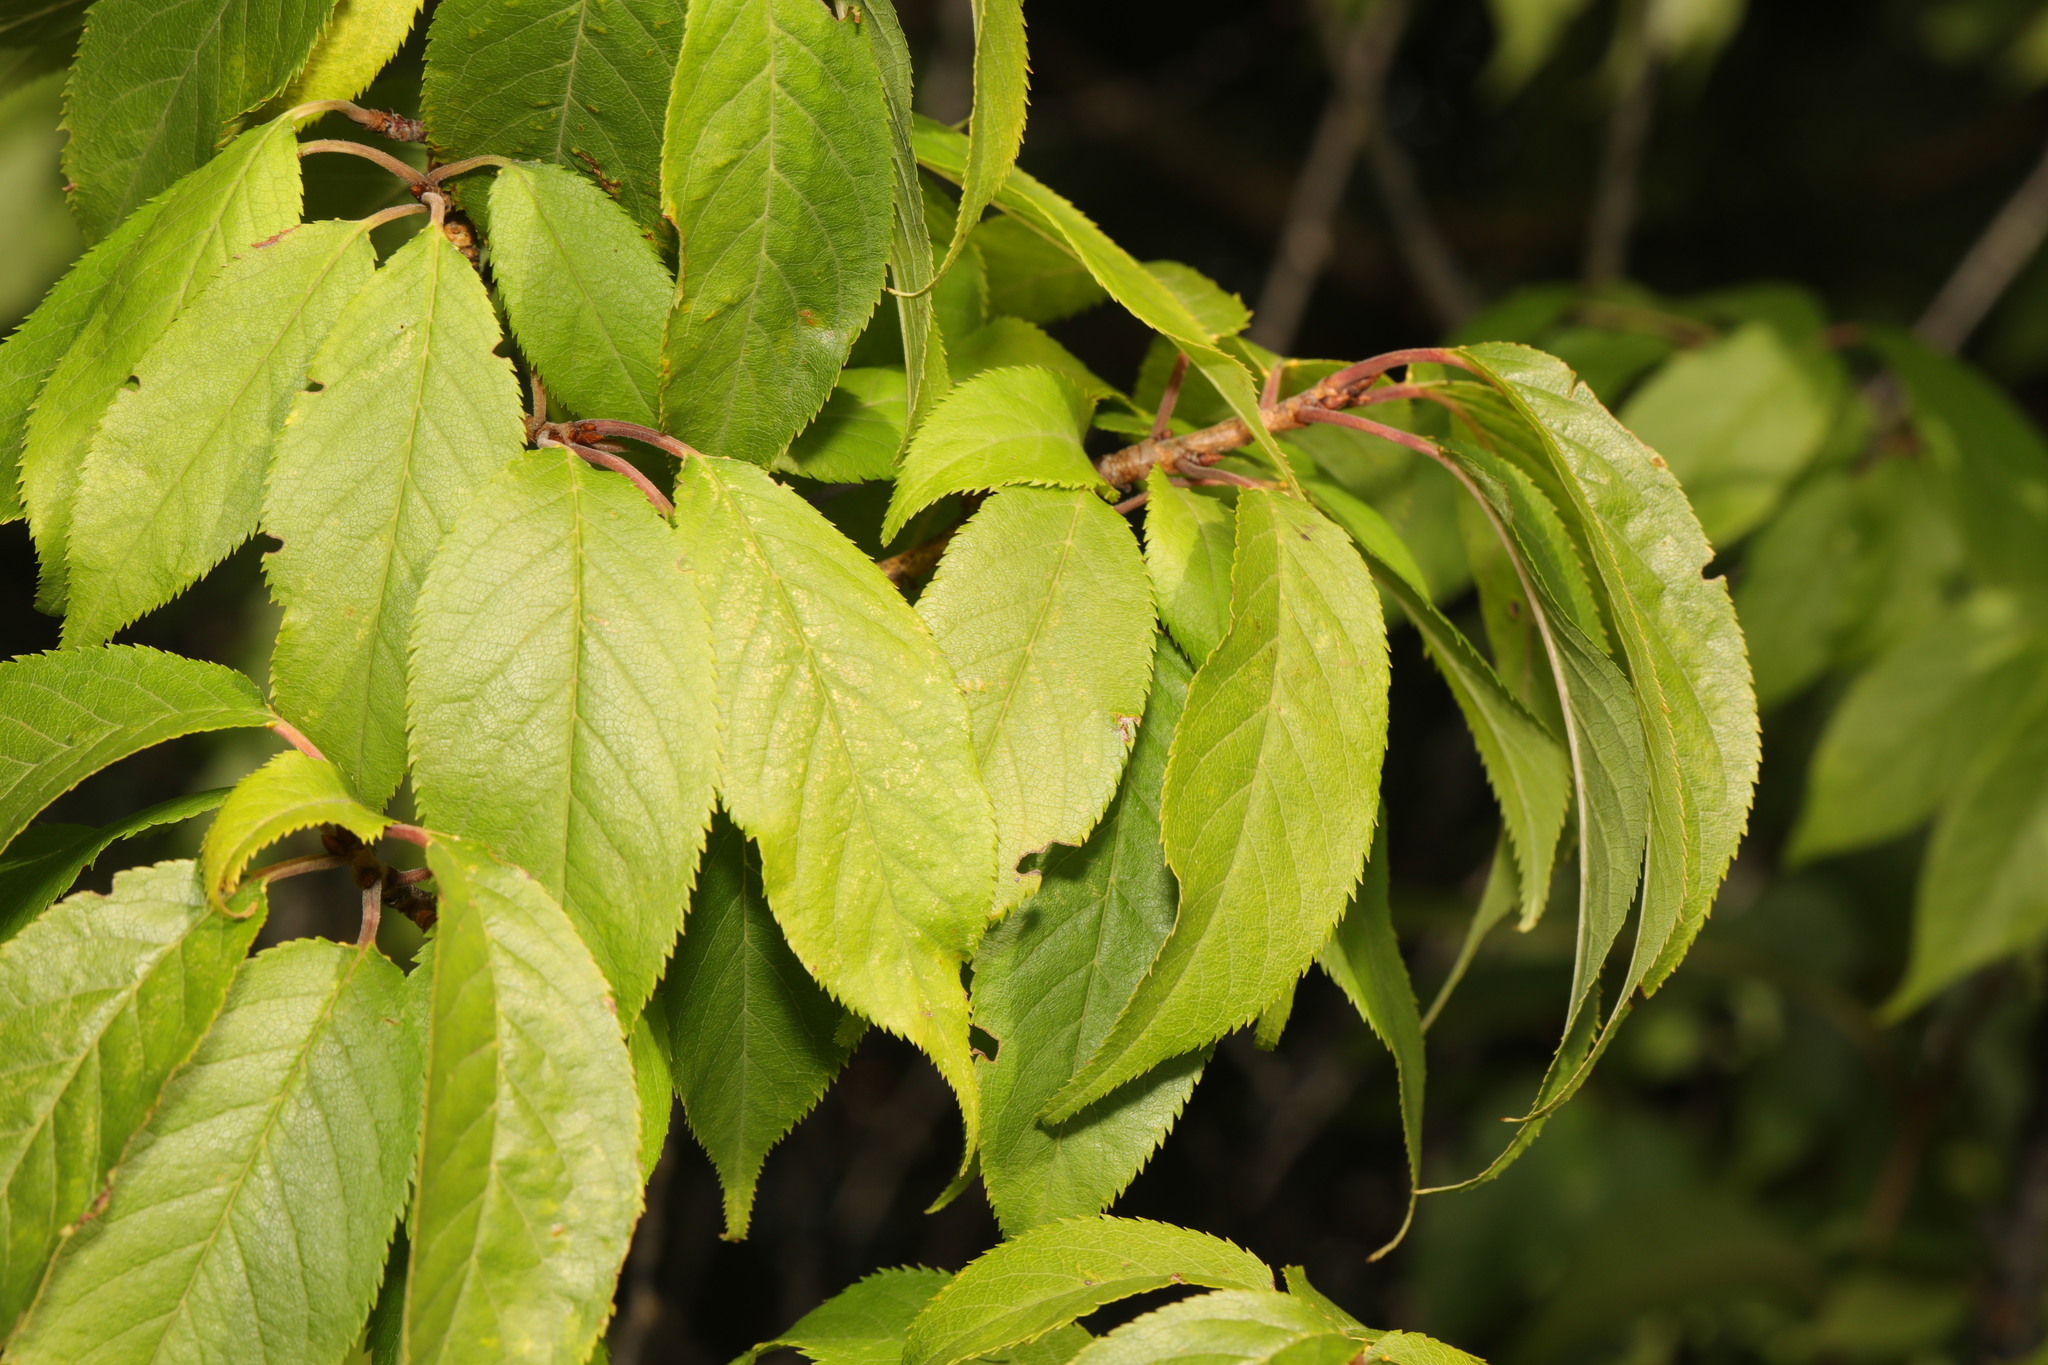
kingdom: Plantae
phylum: Tracheophyta
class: Magnoliopsida
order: Rosales
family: Rosaceae
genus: Prunus
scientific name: Prunus avium
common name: Sweet cherry
